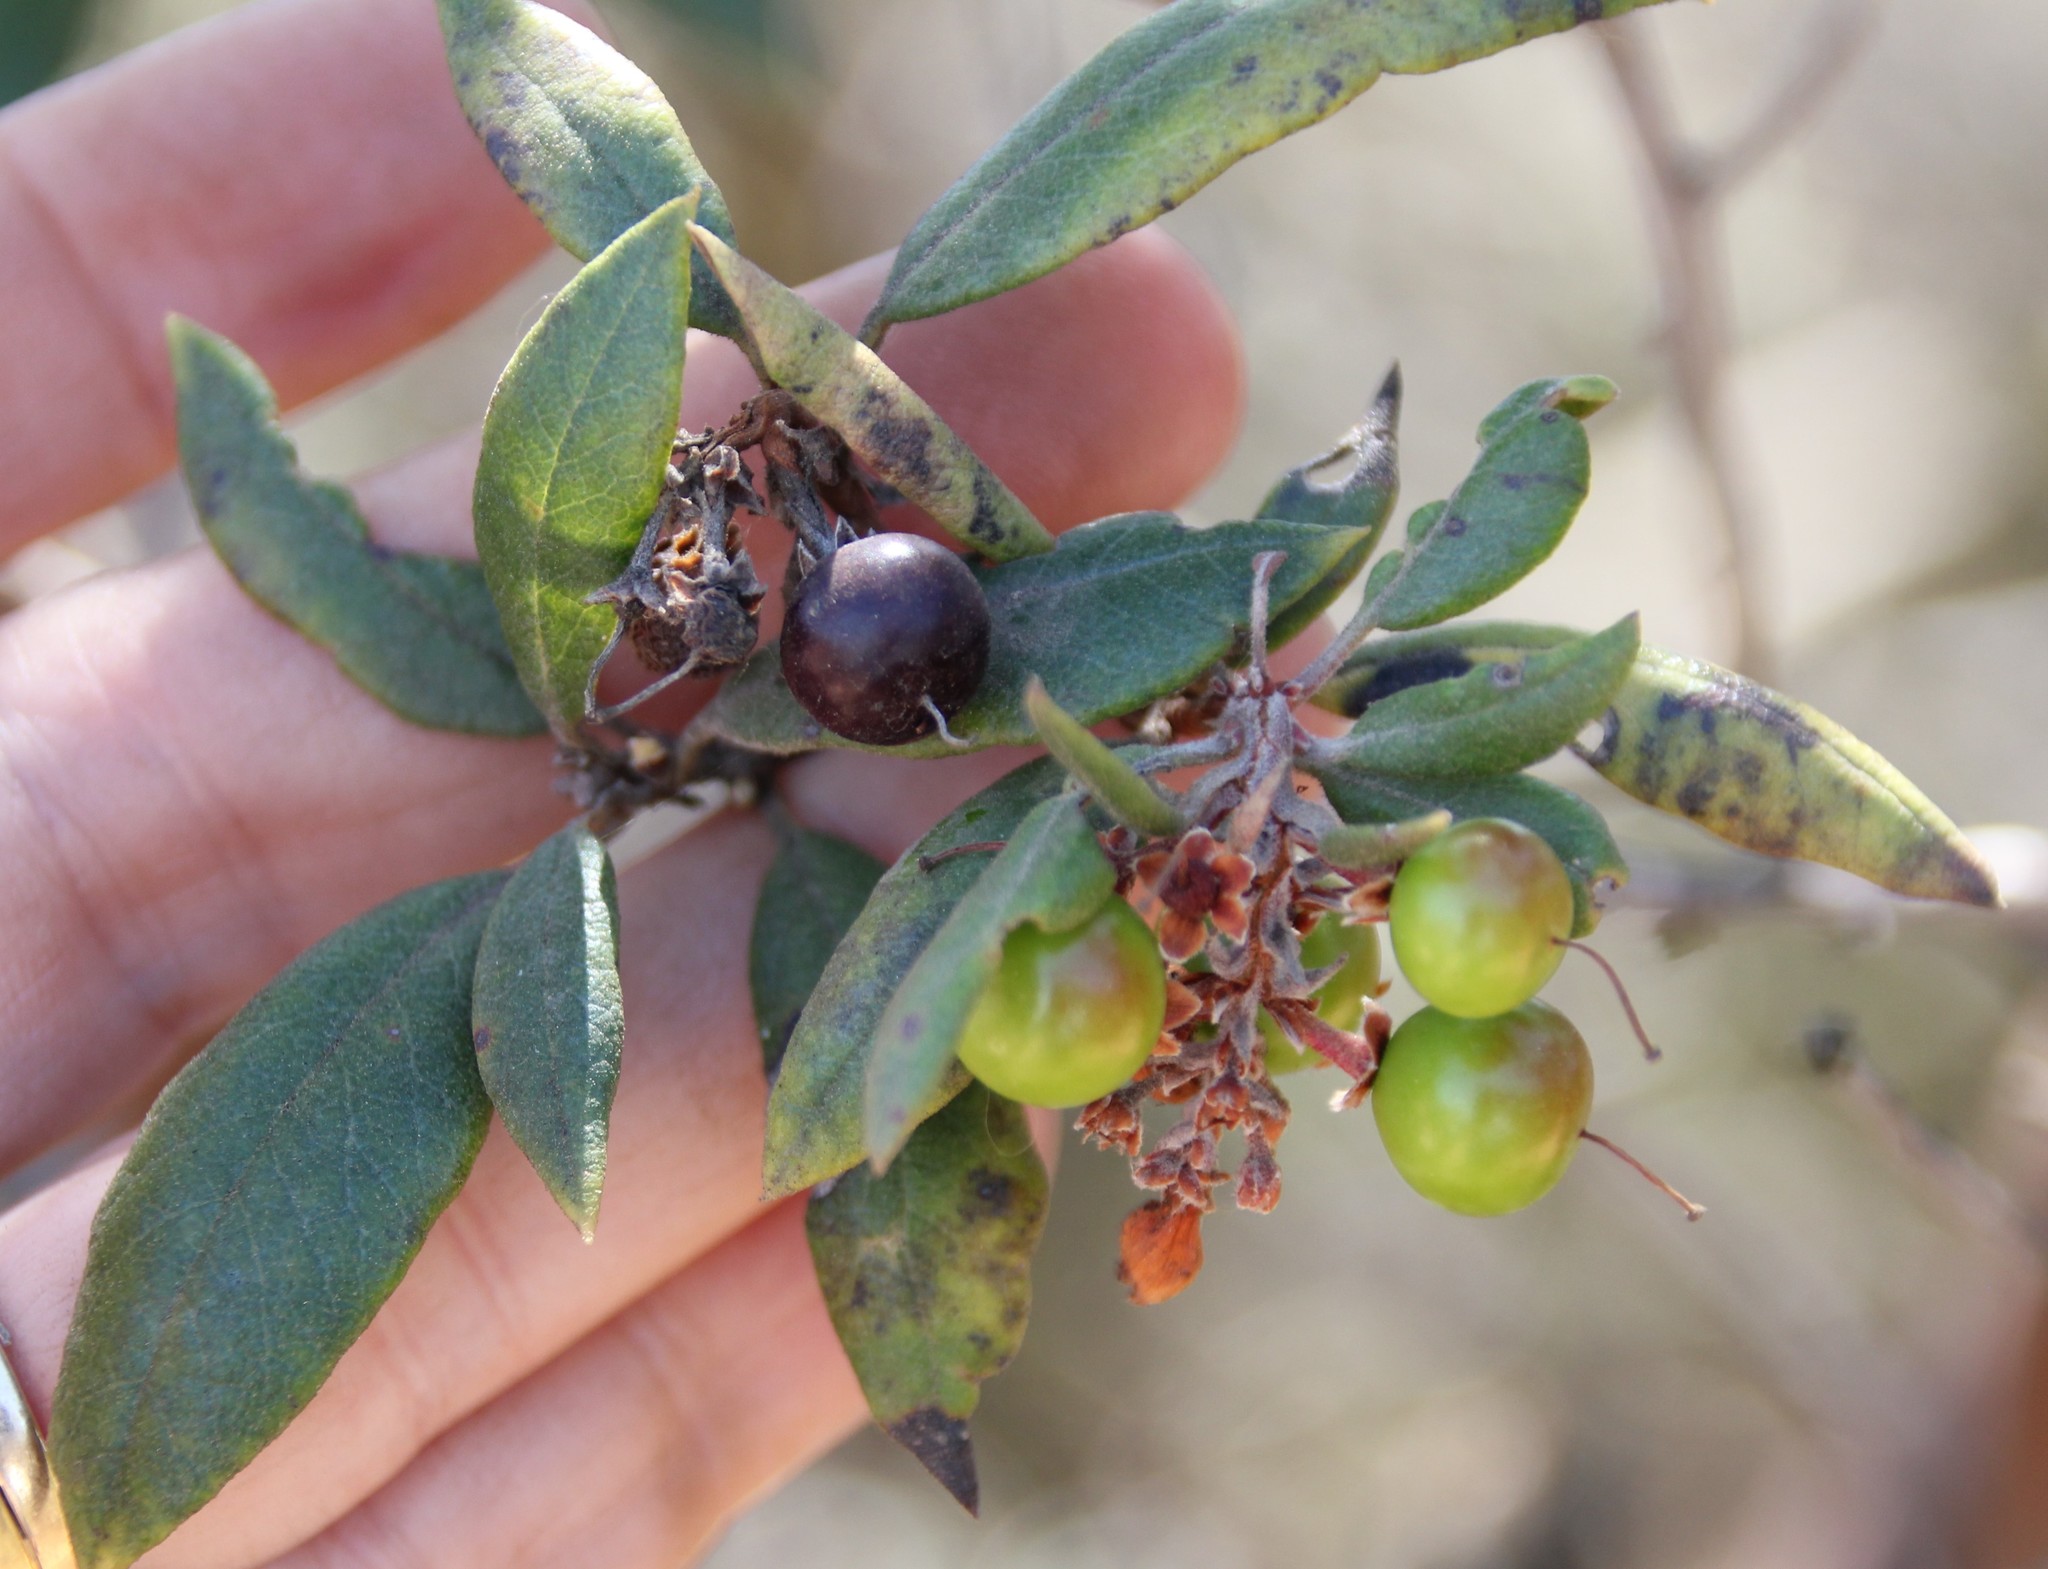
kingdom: Plantae
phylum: Tracheophyta
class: Magnoliopsida
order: Ericales
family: Ericaceae
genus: Arctostaphylos
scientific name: Arctostaphylos bicolor
